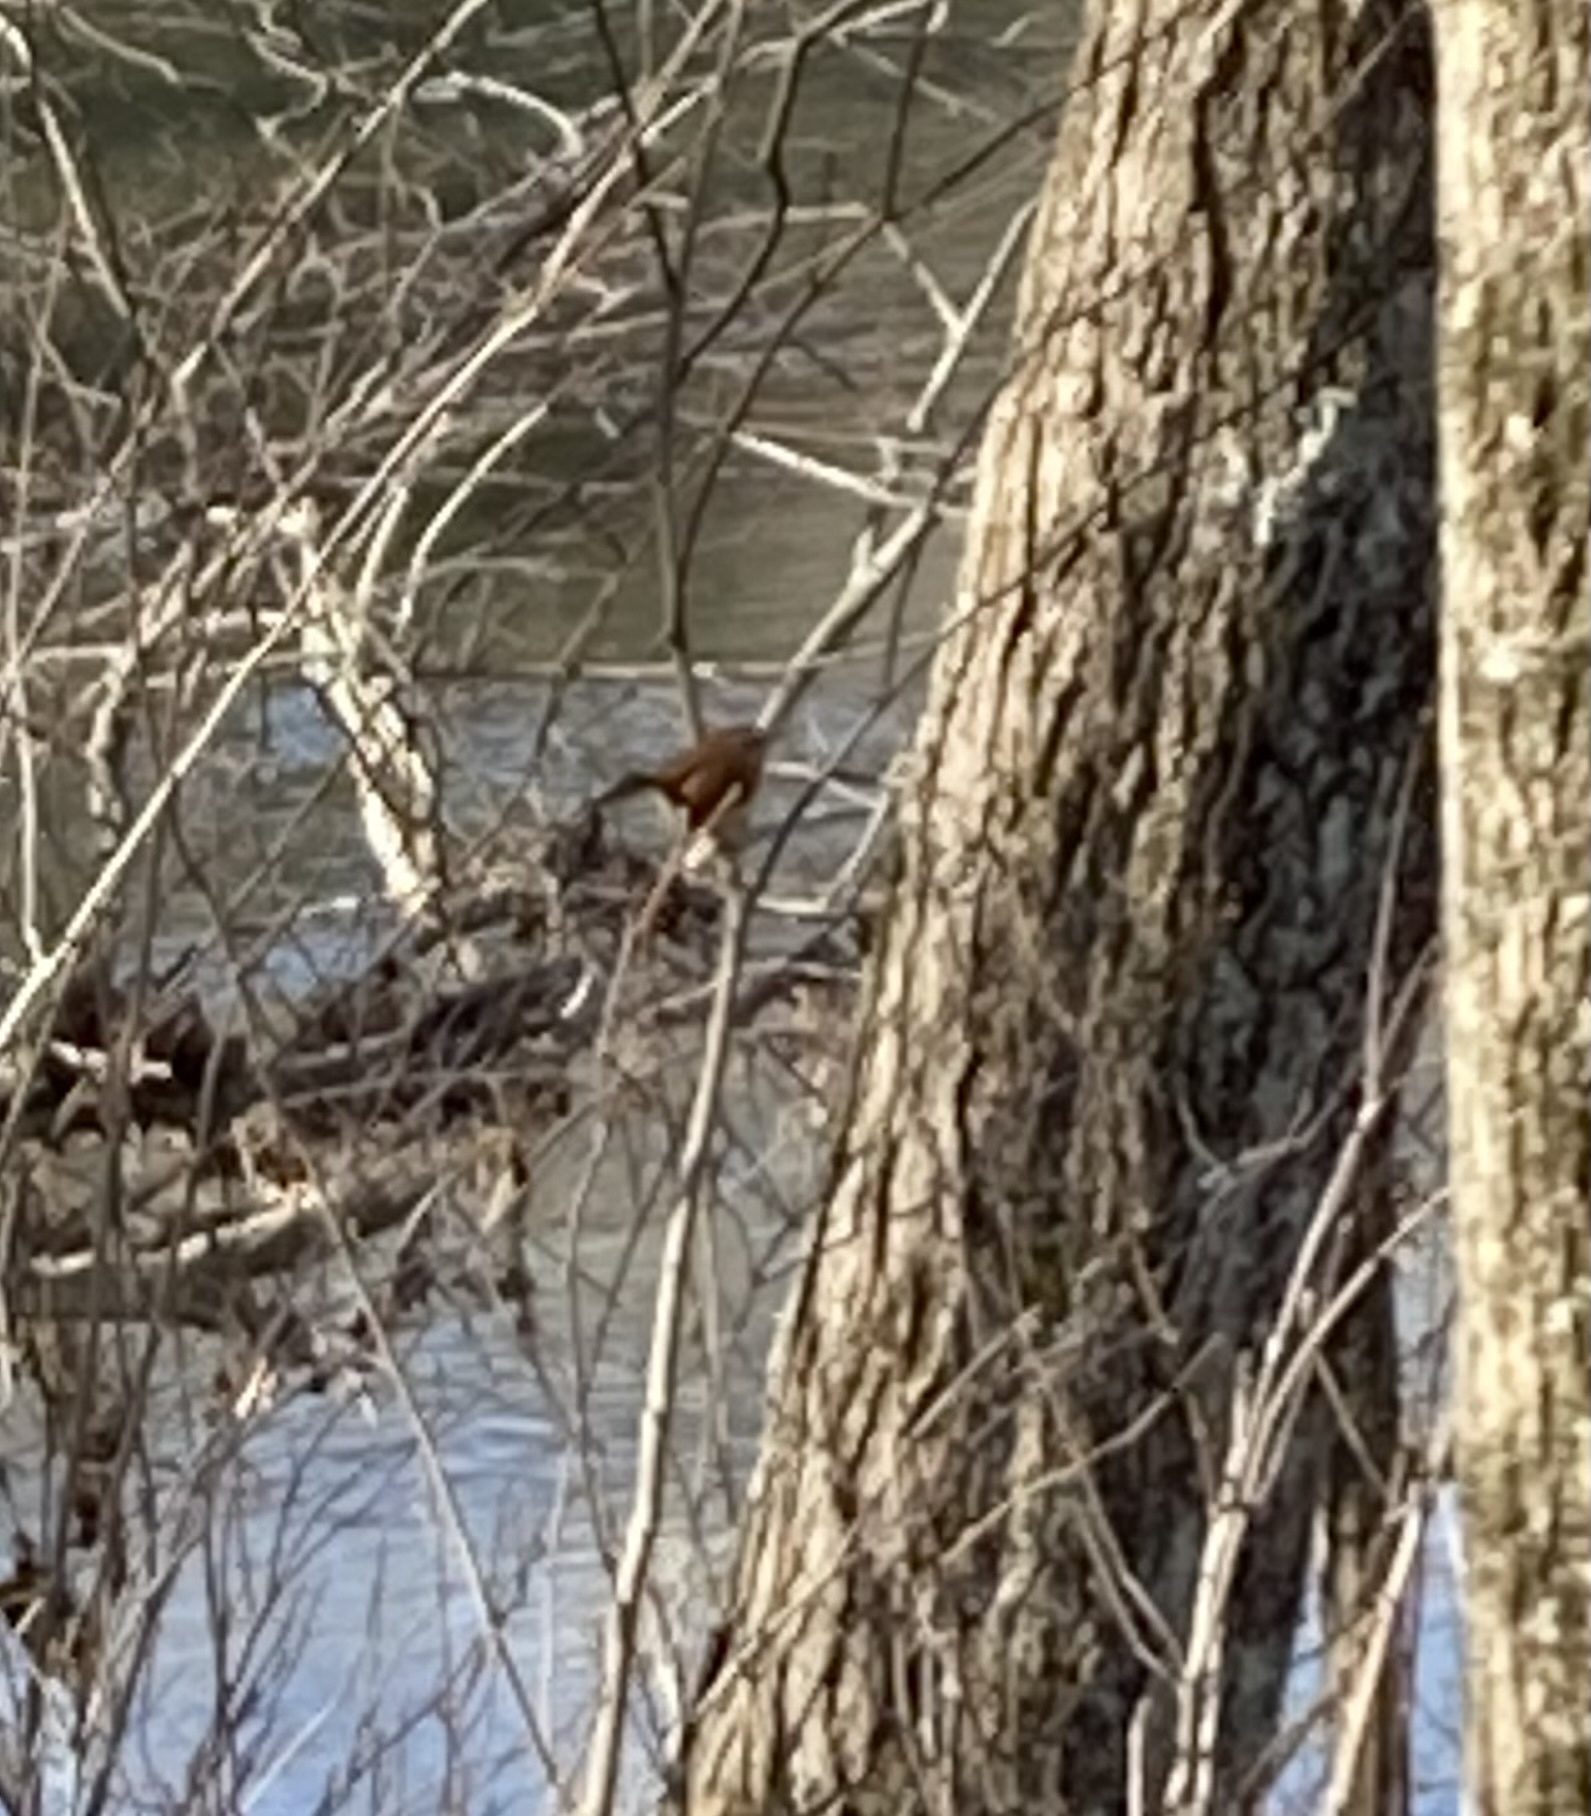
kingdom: Animalia
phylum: Chordata
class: Aves
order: Passeriformes
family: Troglodytidae
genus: Thryothorus
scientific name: Thryothorus ludovicianus
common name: Carolina wren
